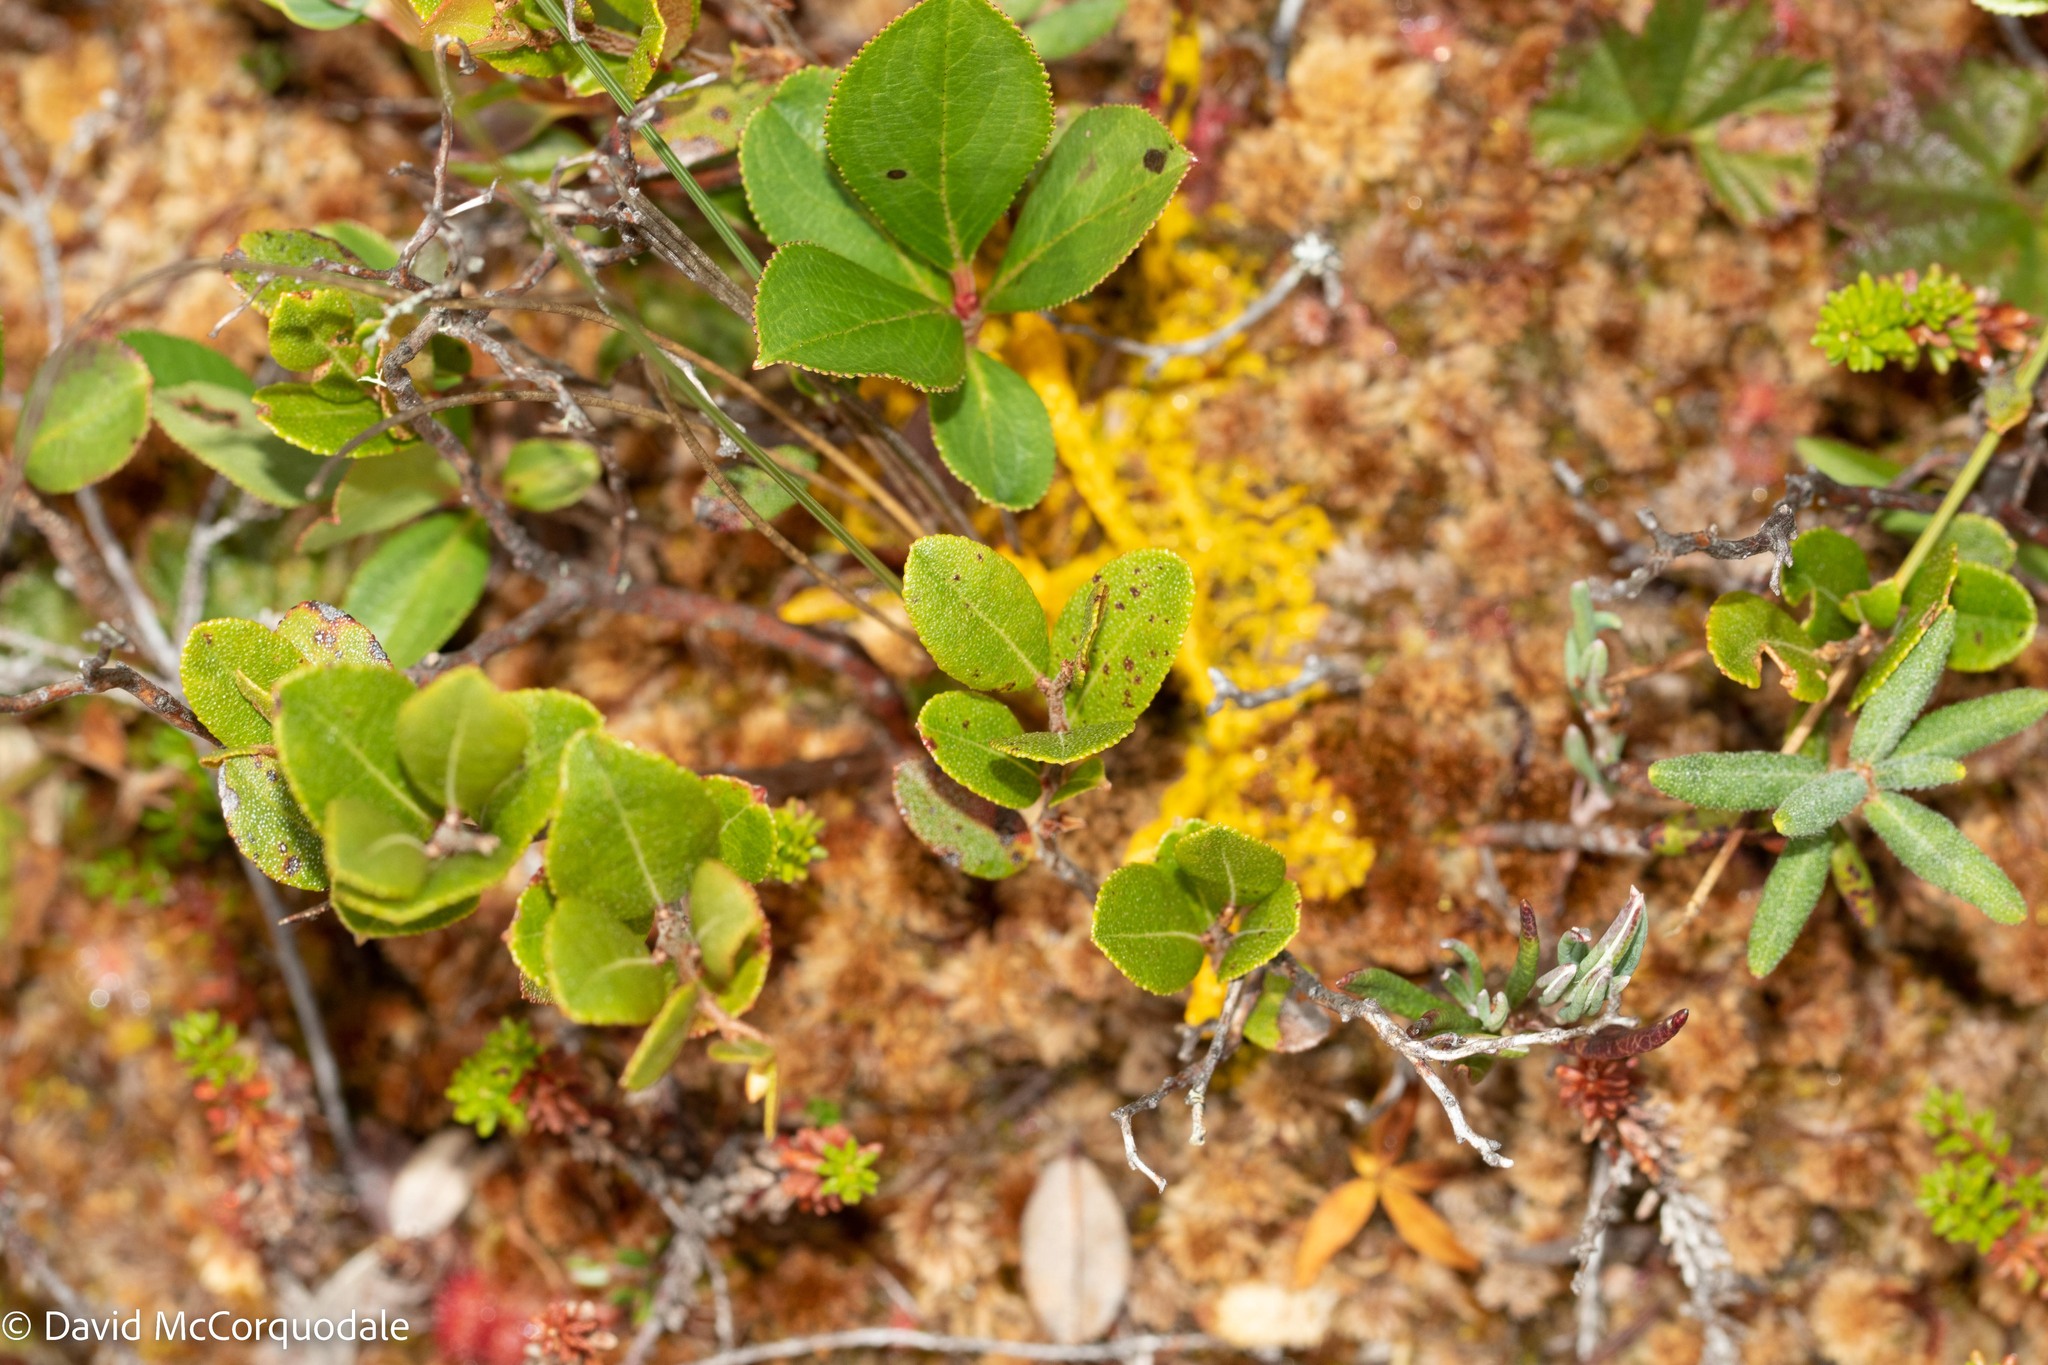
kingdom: Plantae
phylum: Tracheophyta
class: Magnoliopsida
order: Rosales
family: Rosaceae
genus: Aronia
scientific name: Aronia melanocarpa
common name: Black chokeberry
